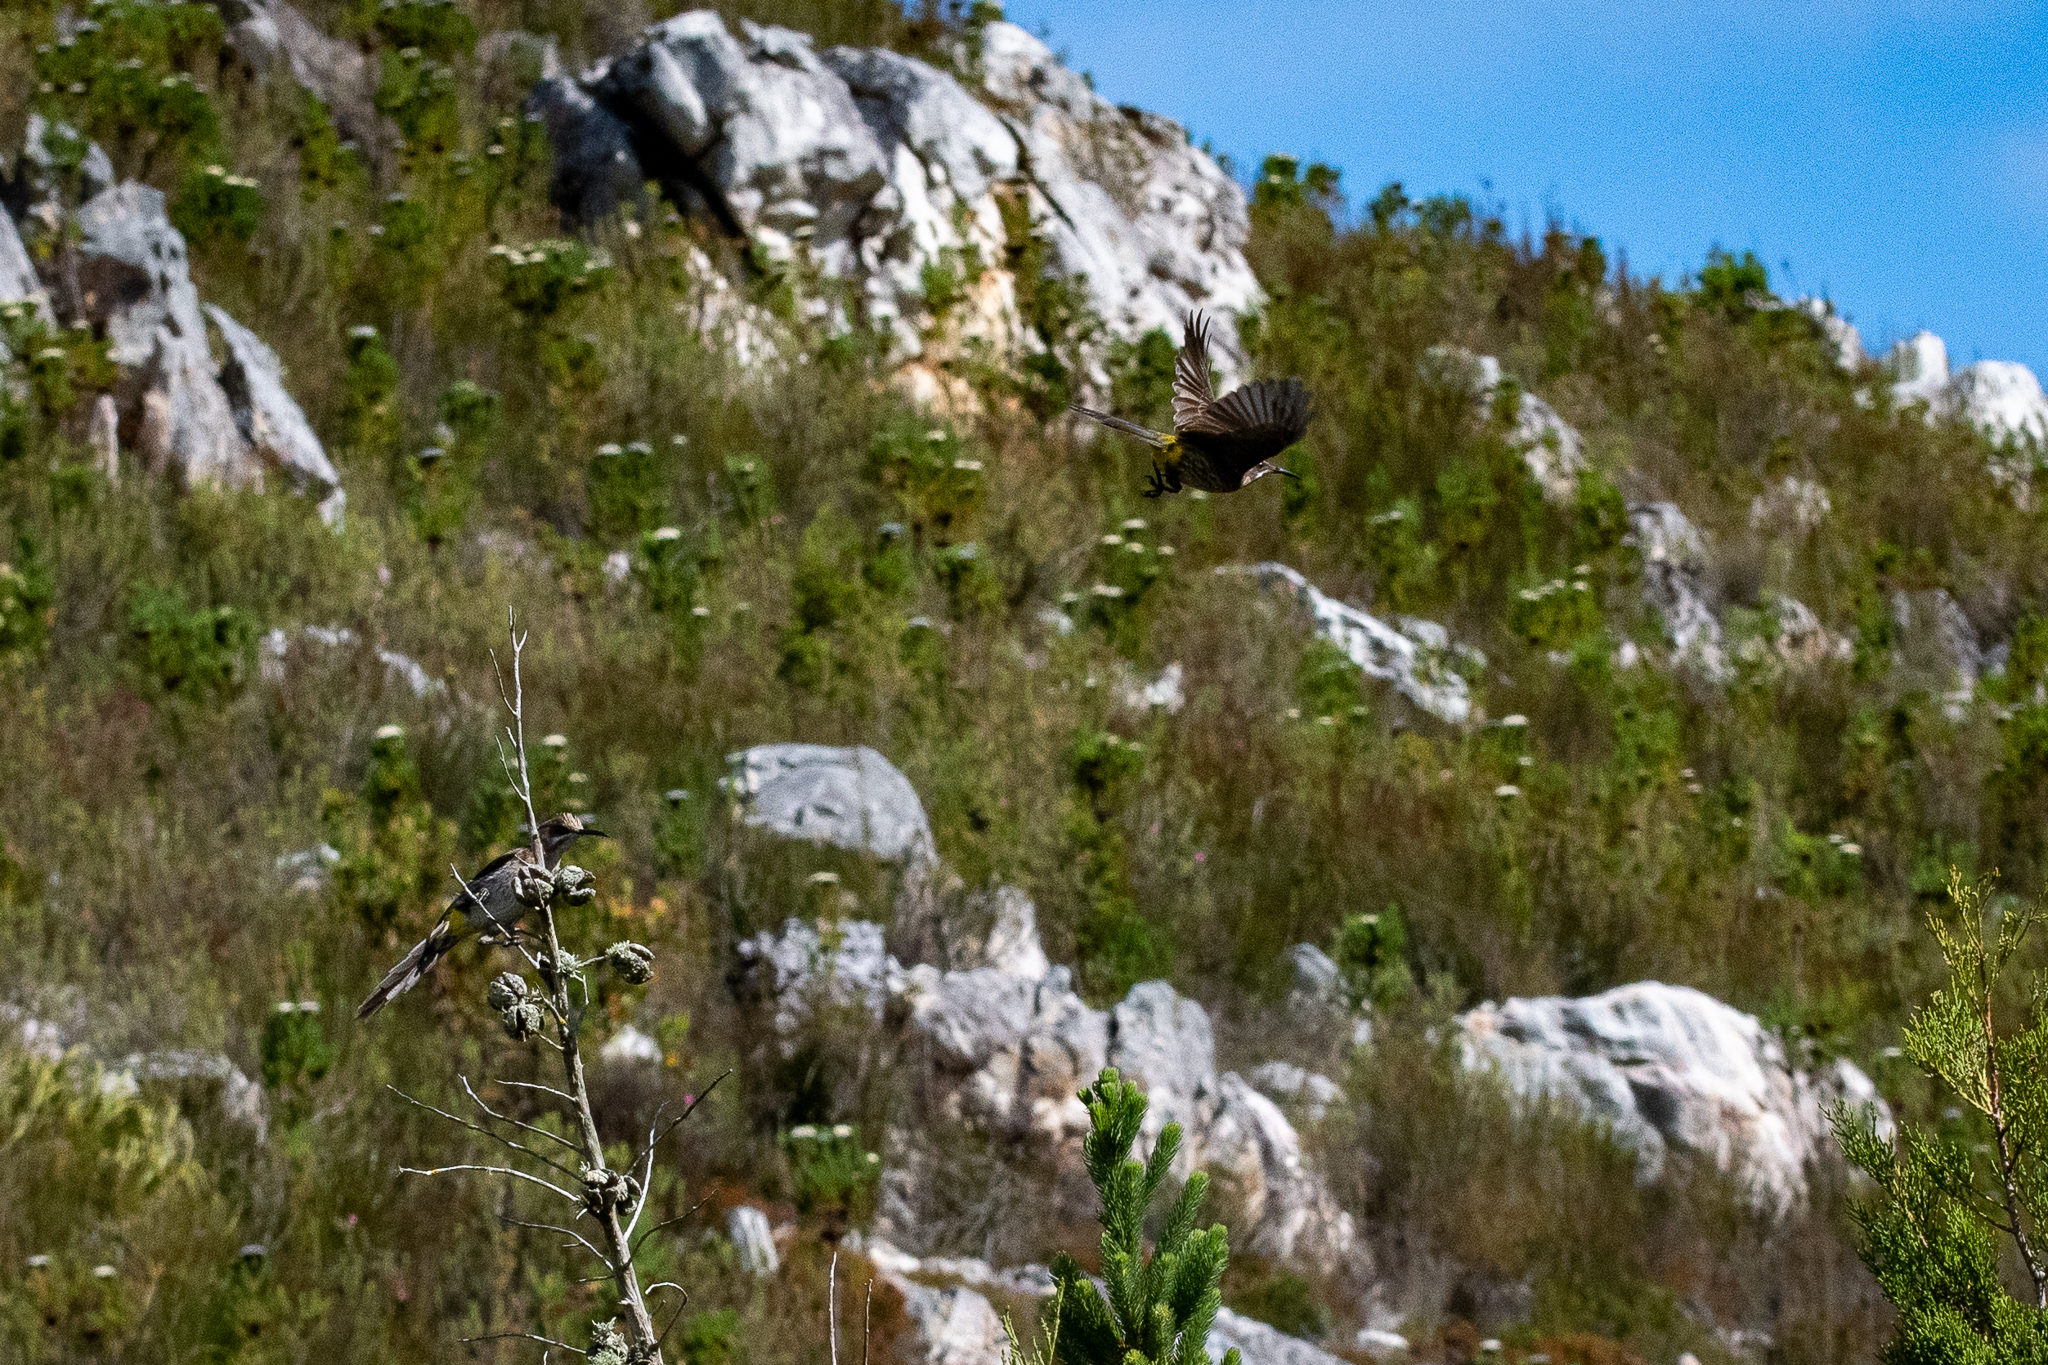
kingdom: Animalia
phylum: Chordata
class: Aves
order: Passeriformes
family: Promeropidae
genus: Promerops
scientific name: Promerops cafer
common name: Cape sugarbird
